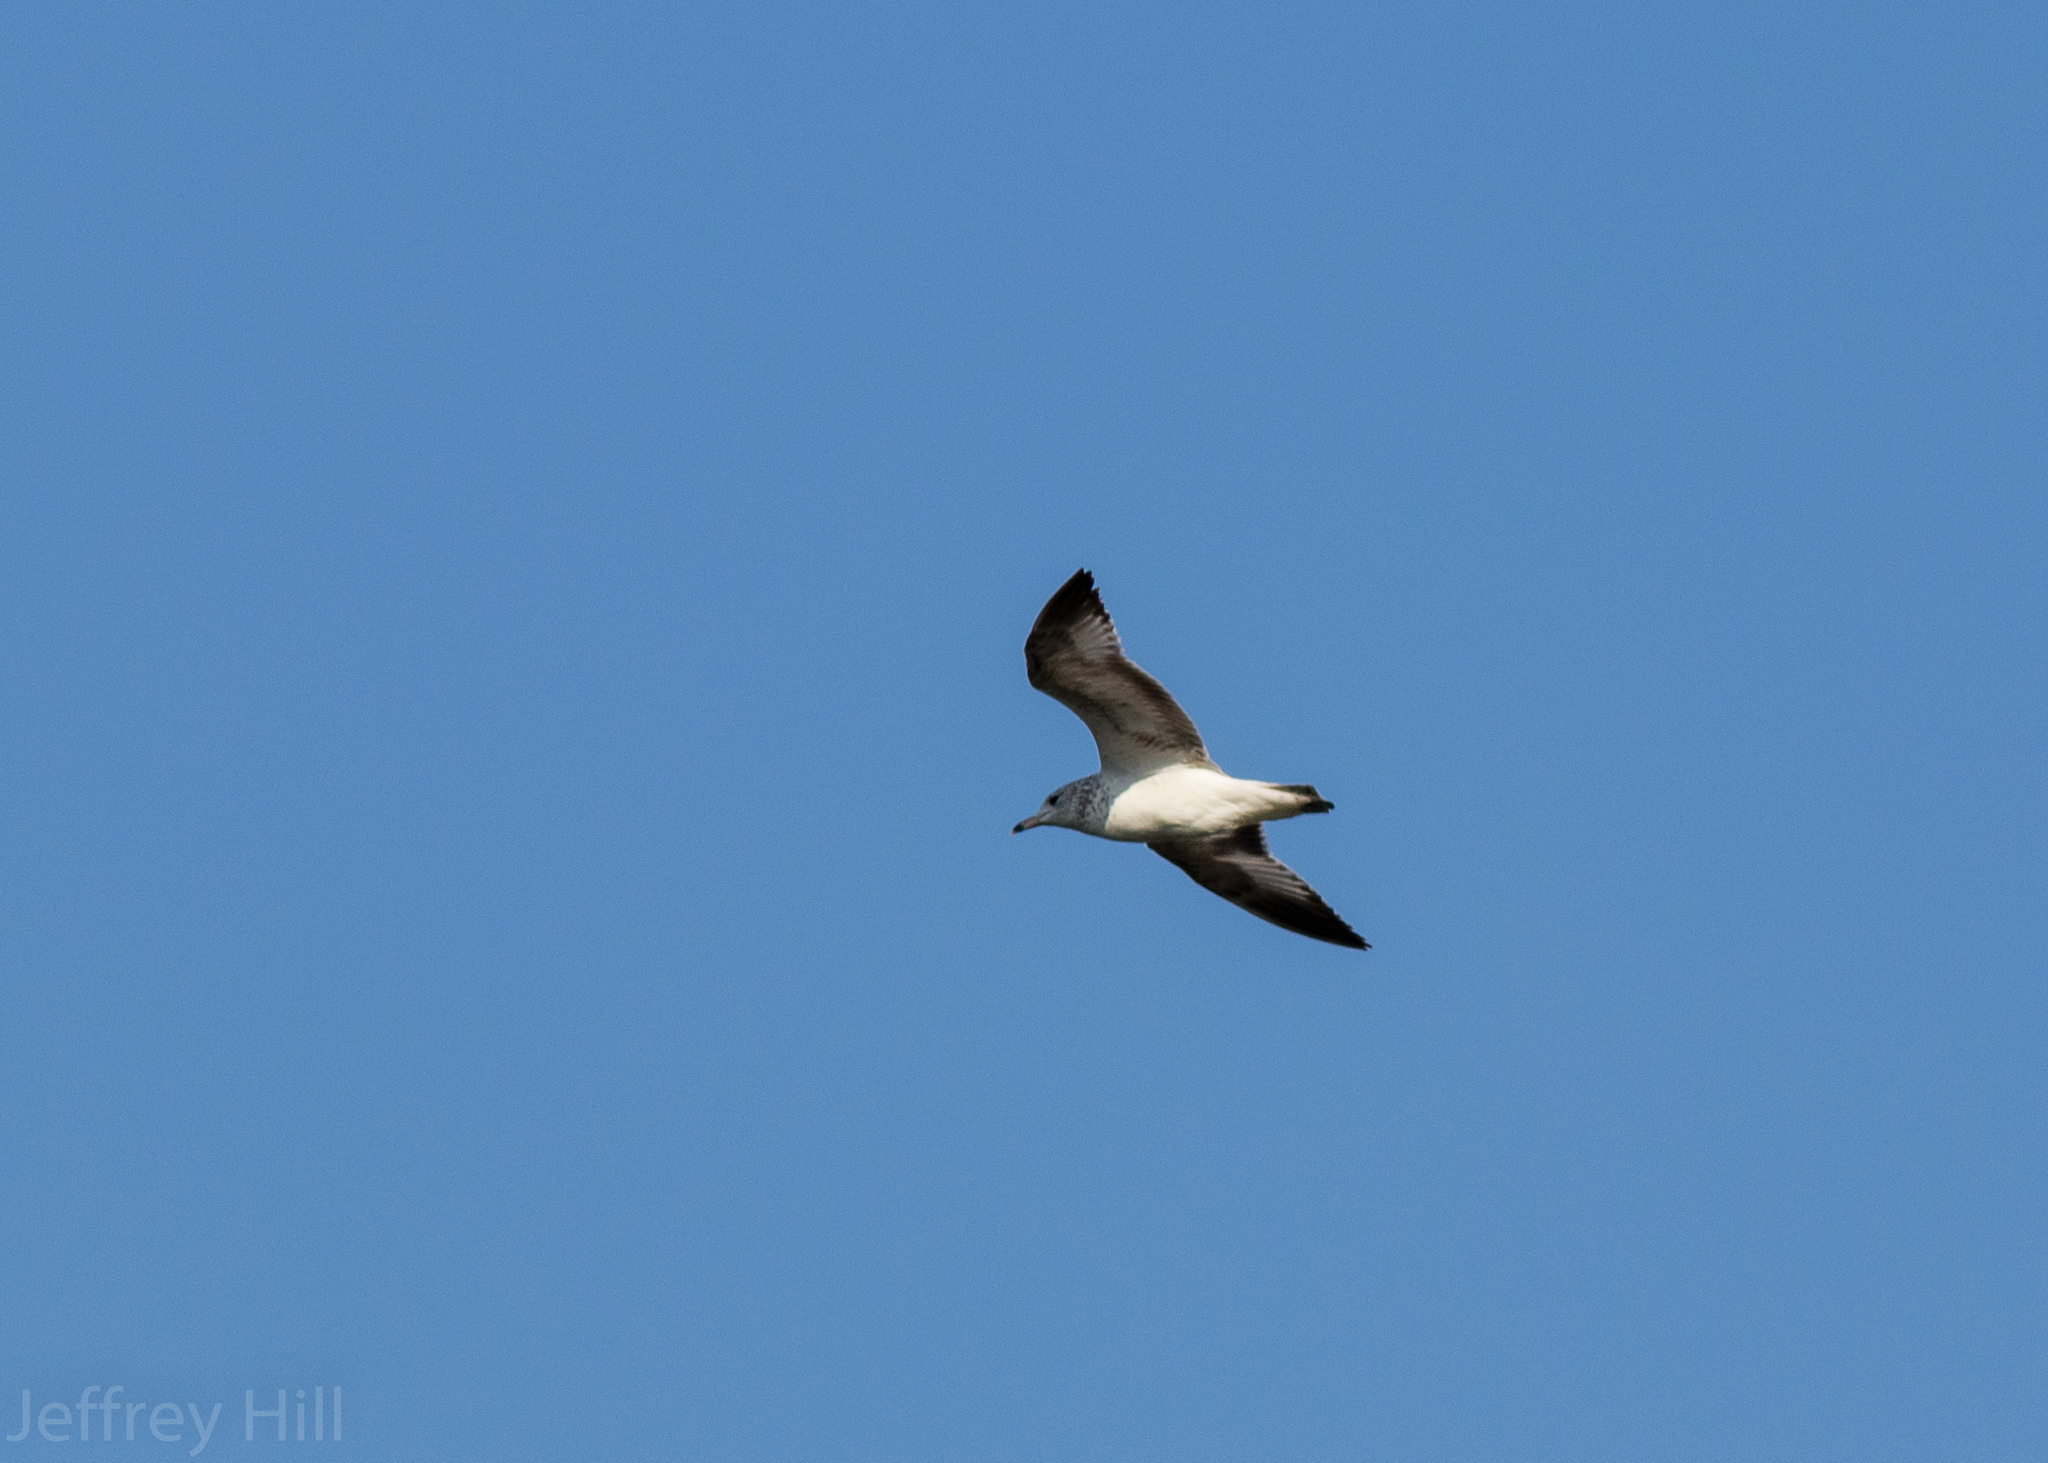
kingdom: Animalia
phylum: Chordata
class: Aves
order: Charadriiformes
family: Laridae
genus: Larus
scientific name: Larus delawarensis
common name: Ring-billed gull
